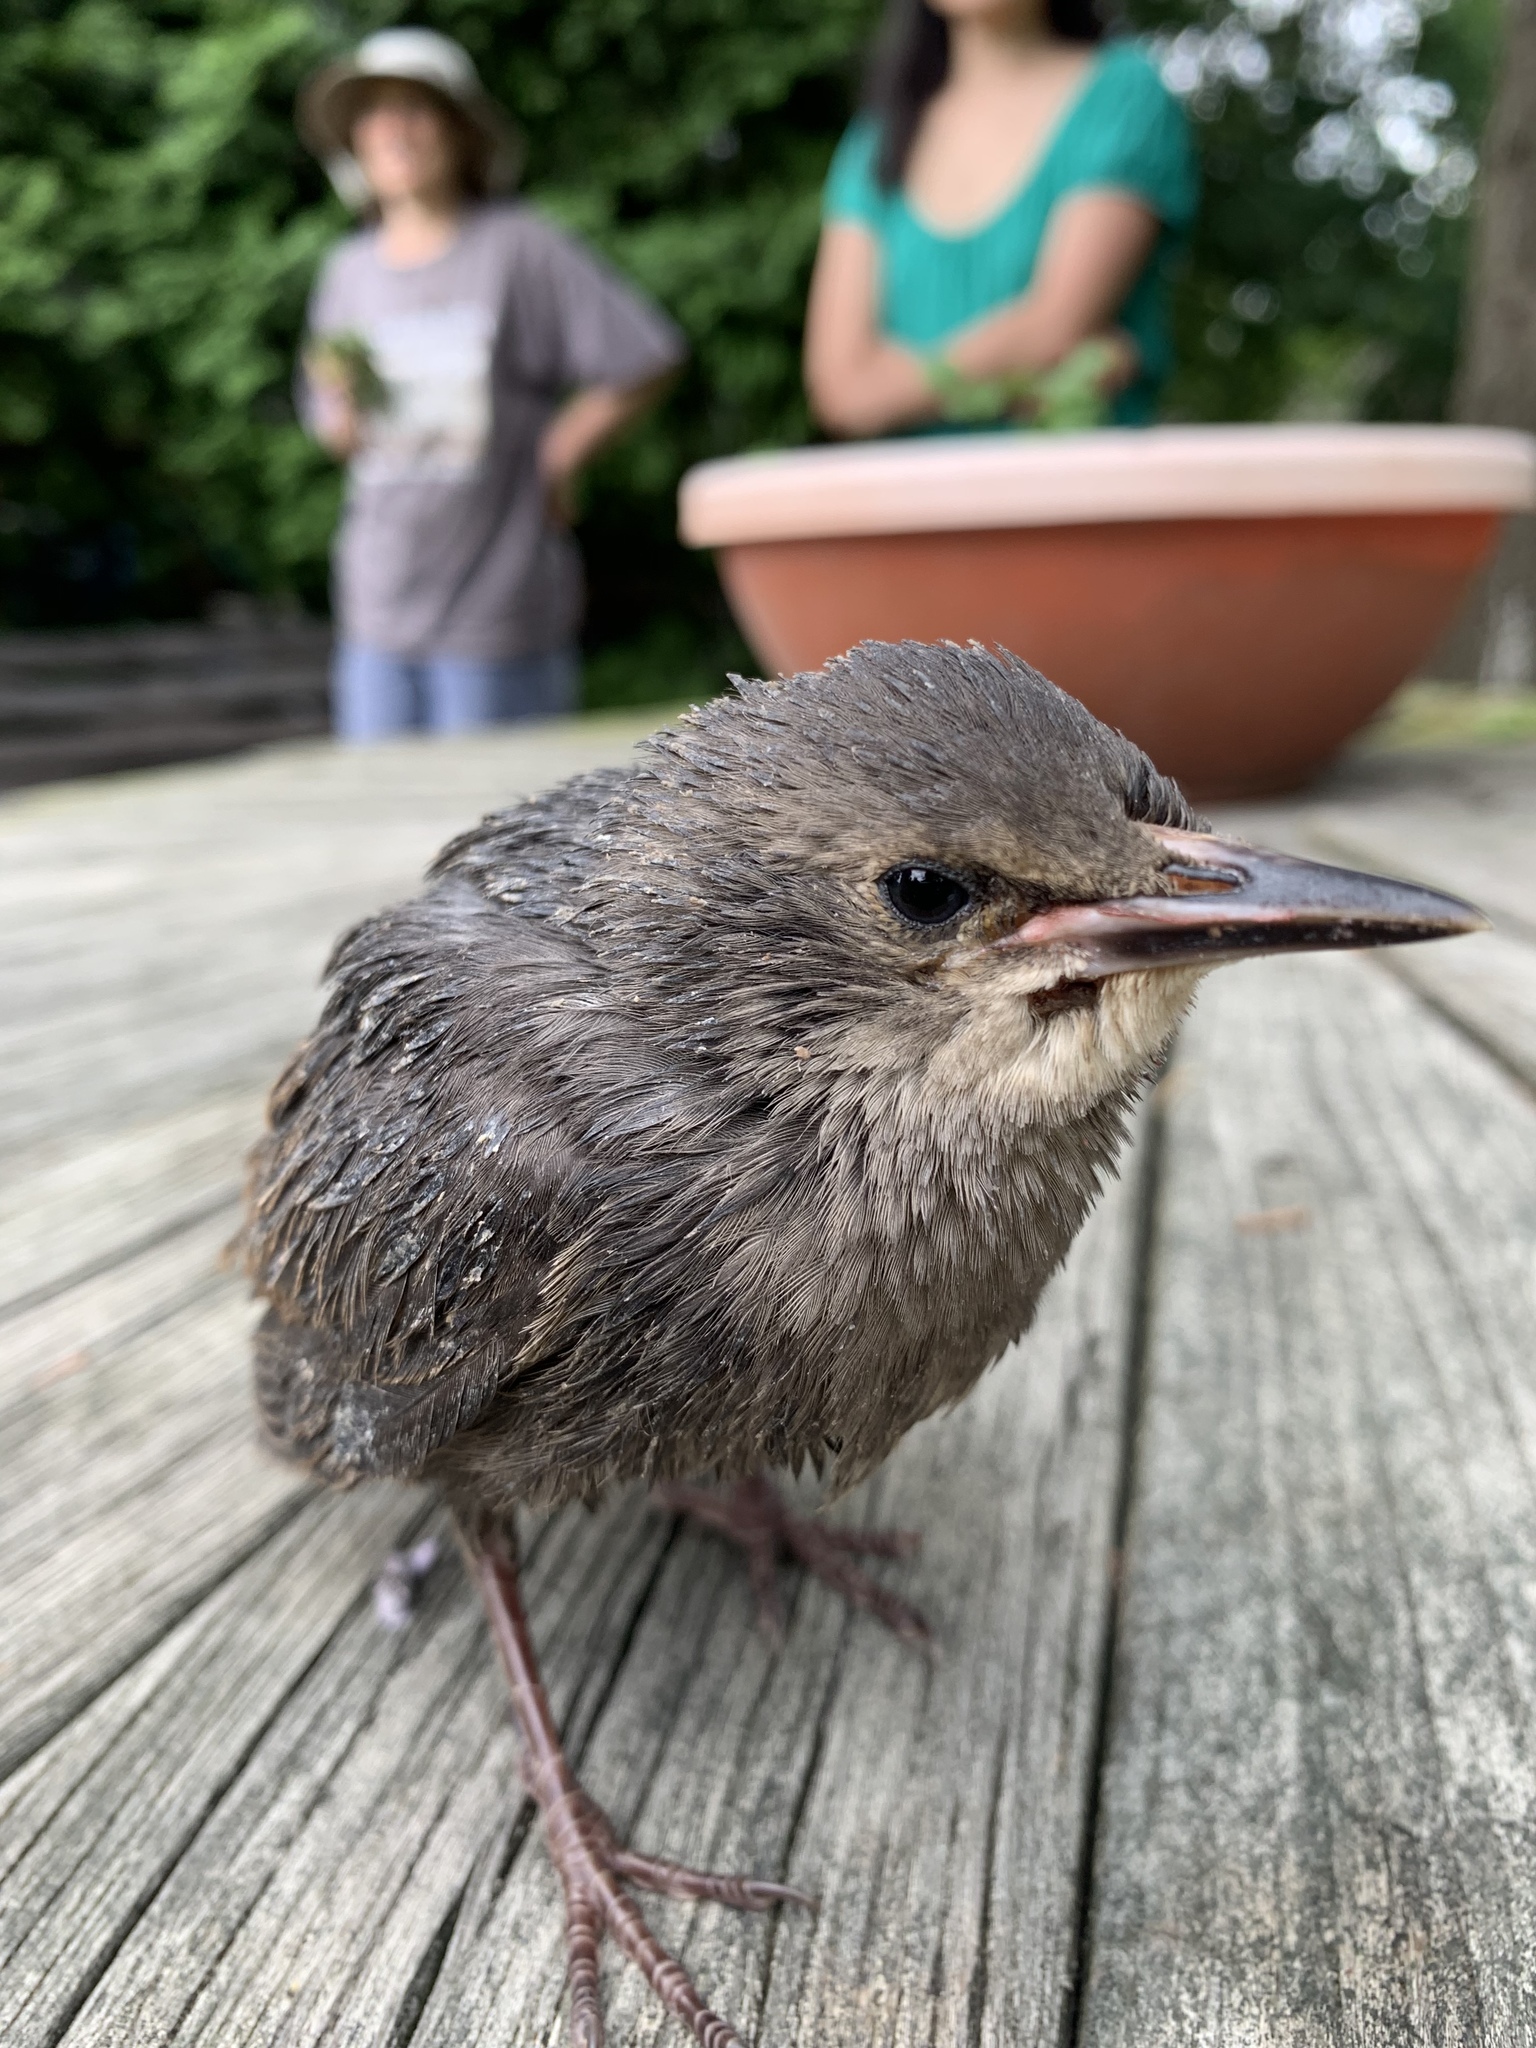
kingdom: Animalia
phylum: Chordata
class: Aves
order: Passeriformes
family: Sturnidae
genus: Sturnus
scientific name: Sturnus vulgaris
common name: Common starling
